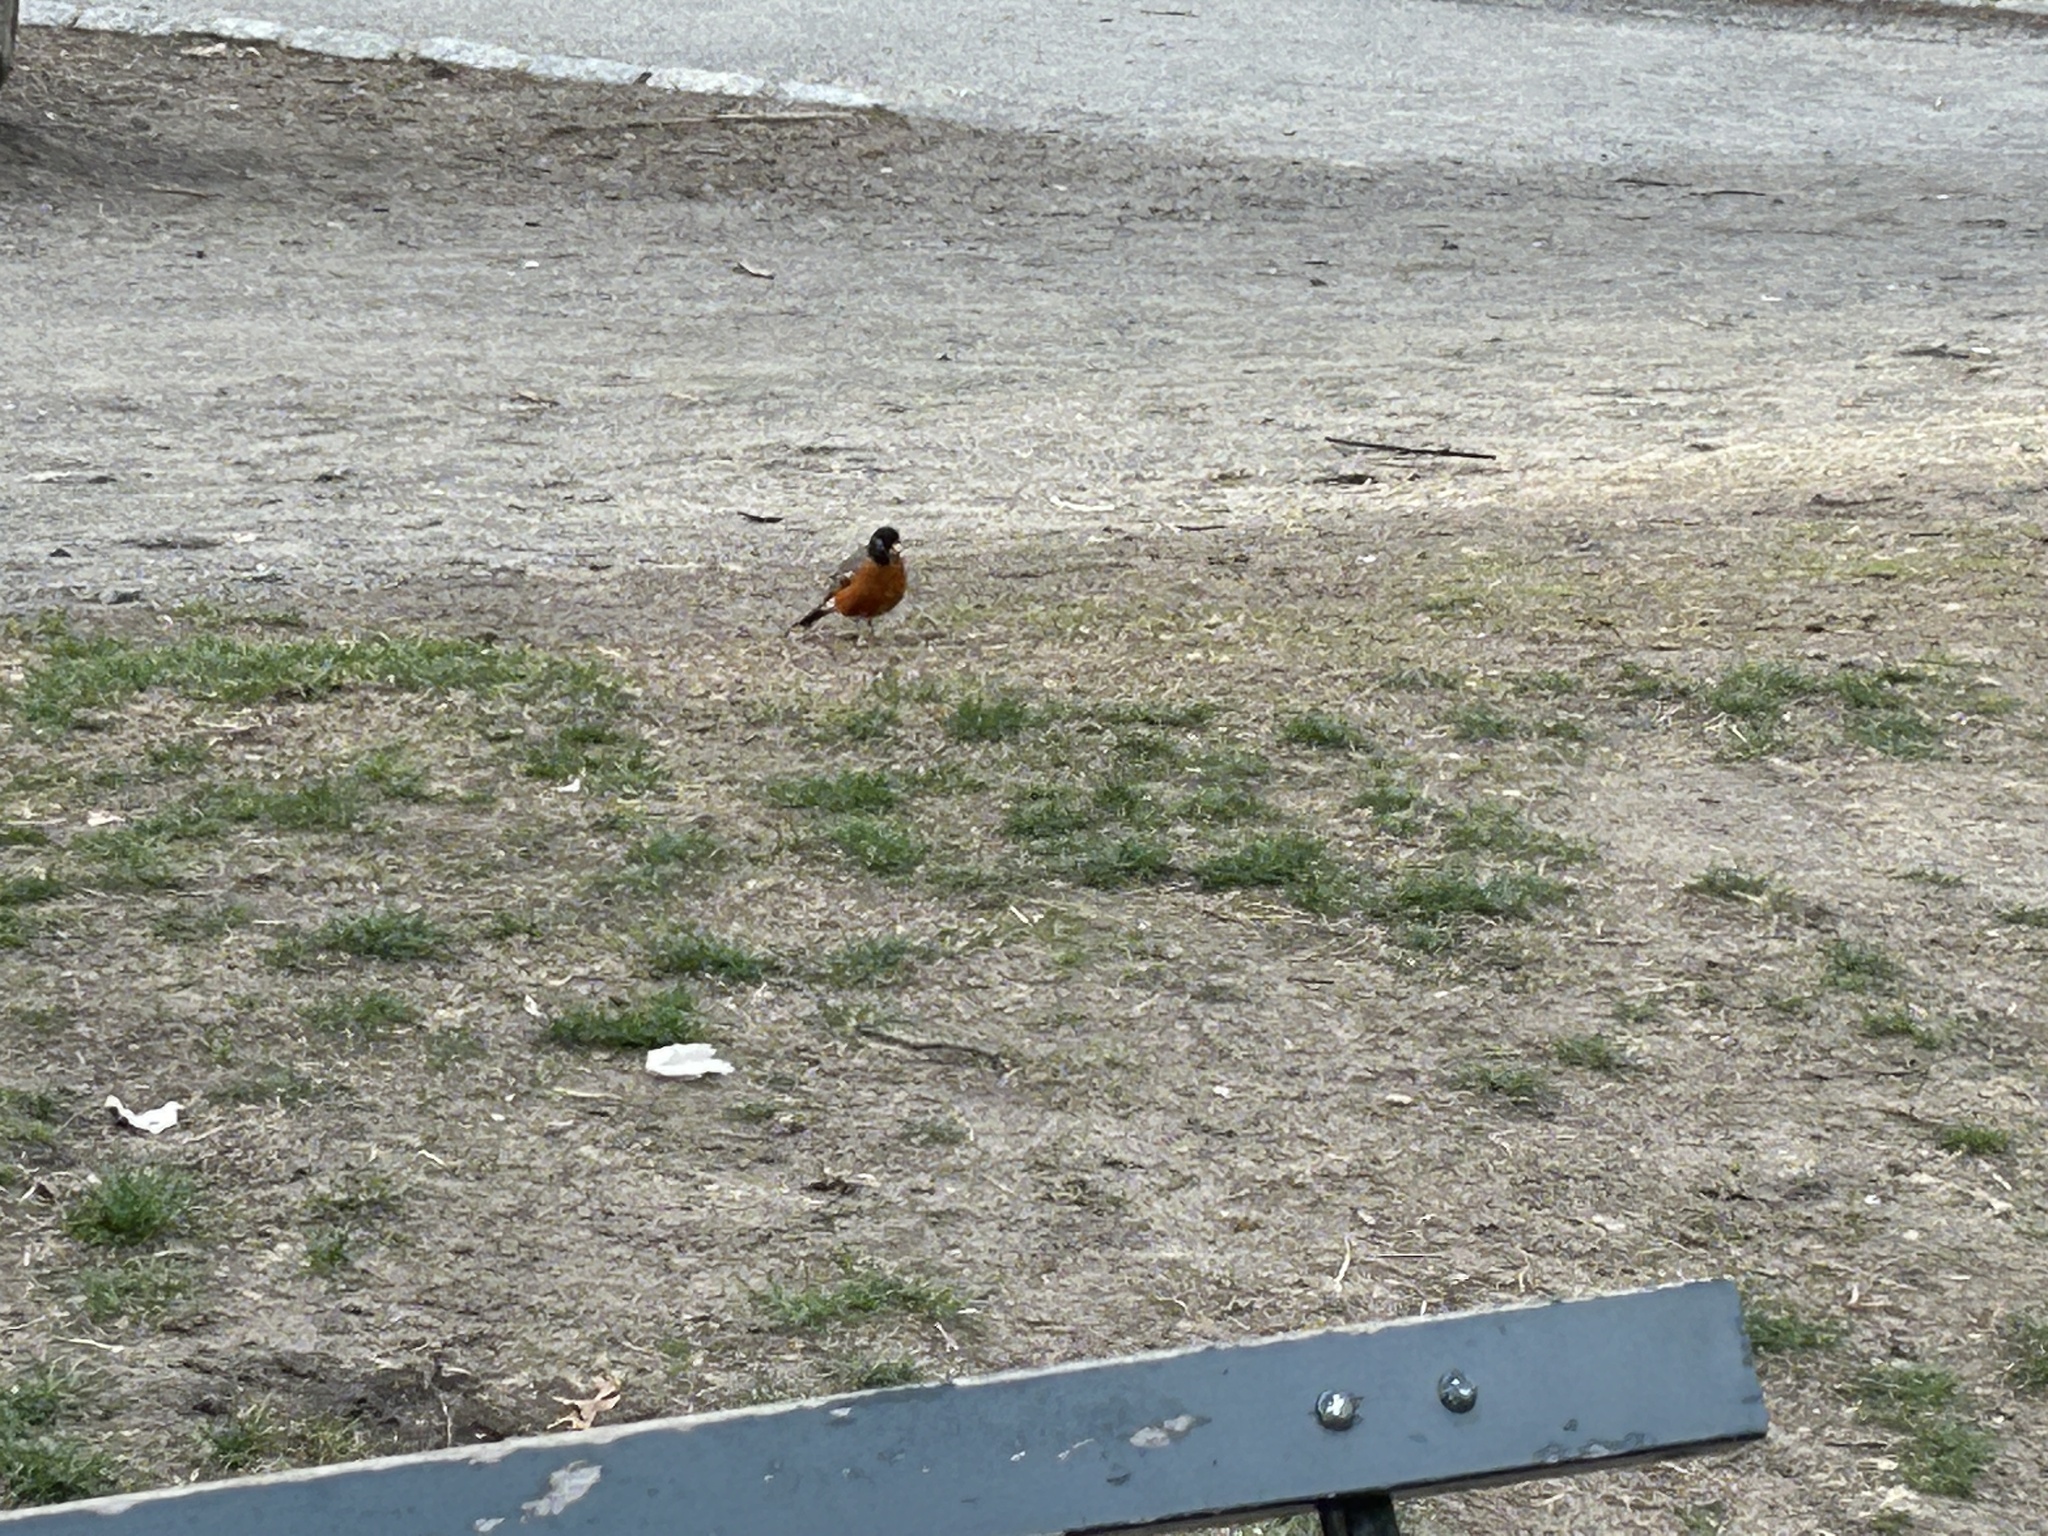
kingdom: Animalia
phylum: Chordata
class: Aves
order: Passeriformes
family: Turdidae
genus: Turdus
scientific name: Turdus migratorius
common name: American robin
